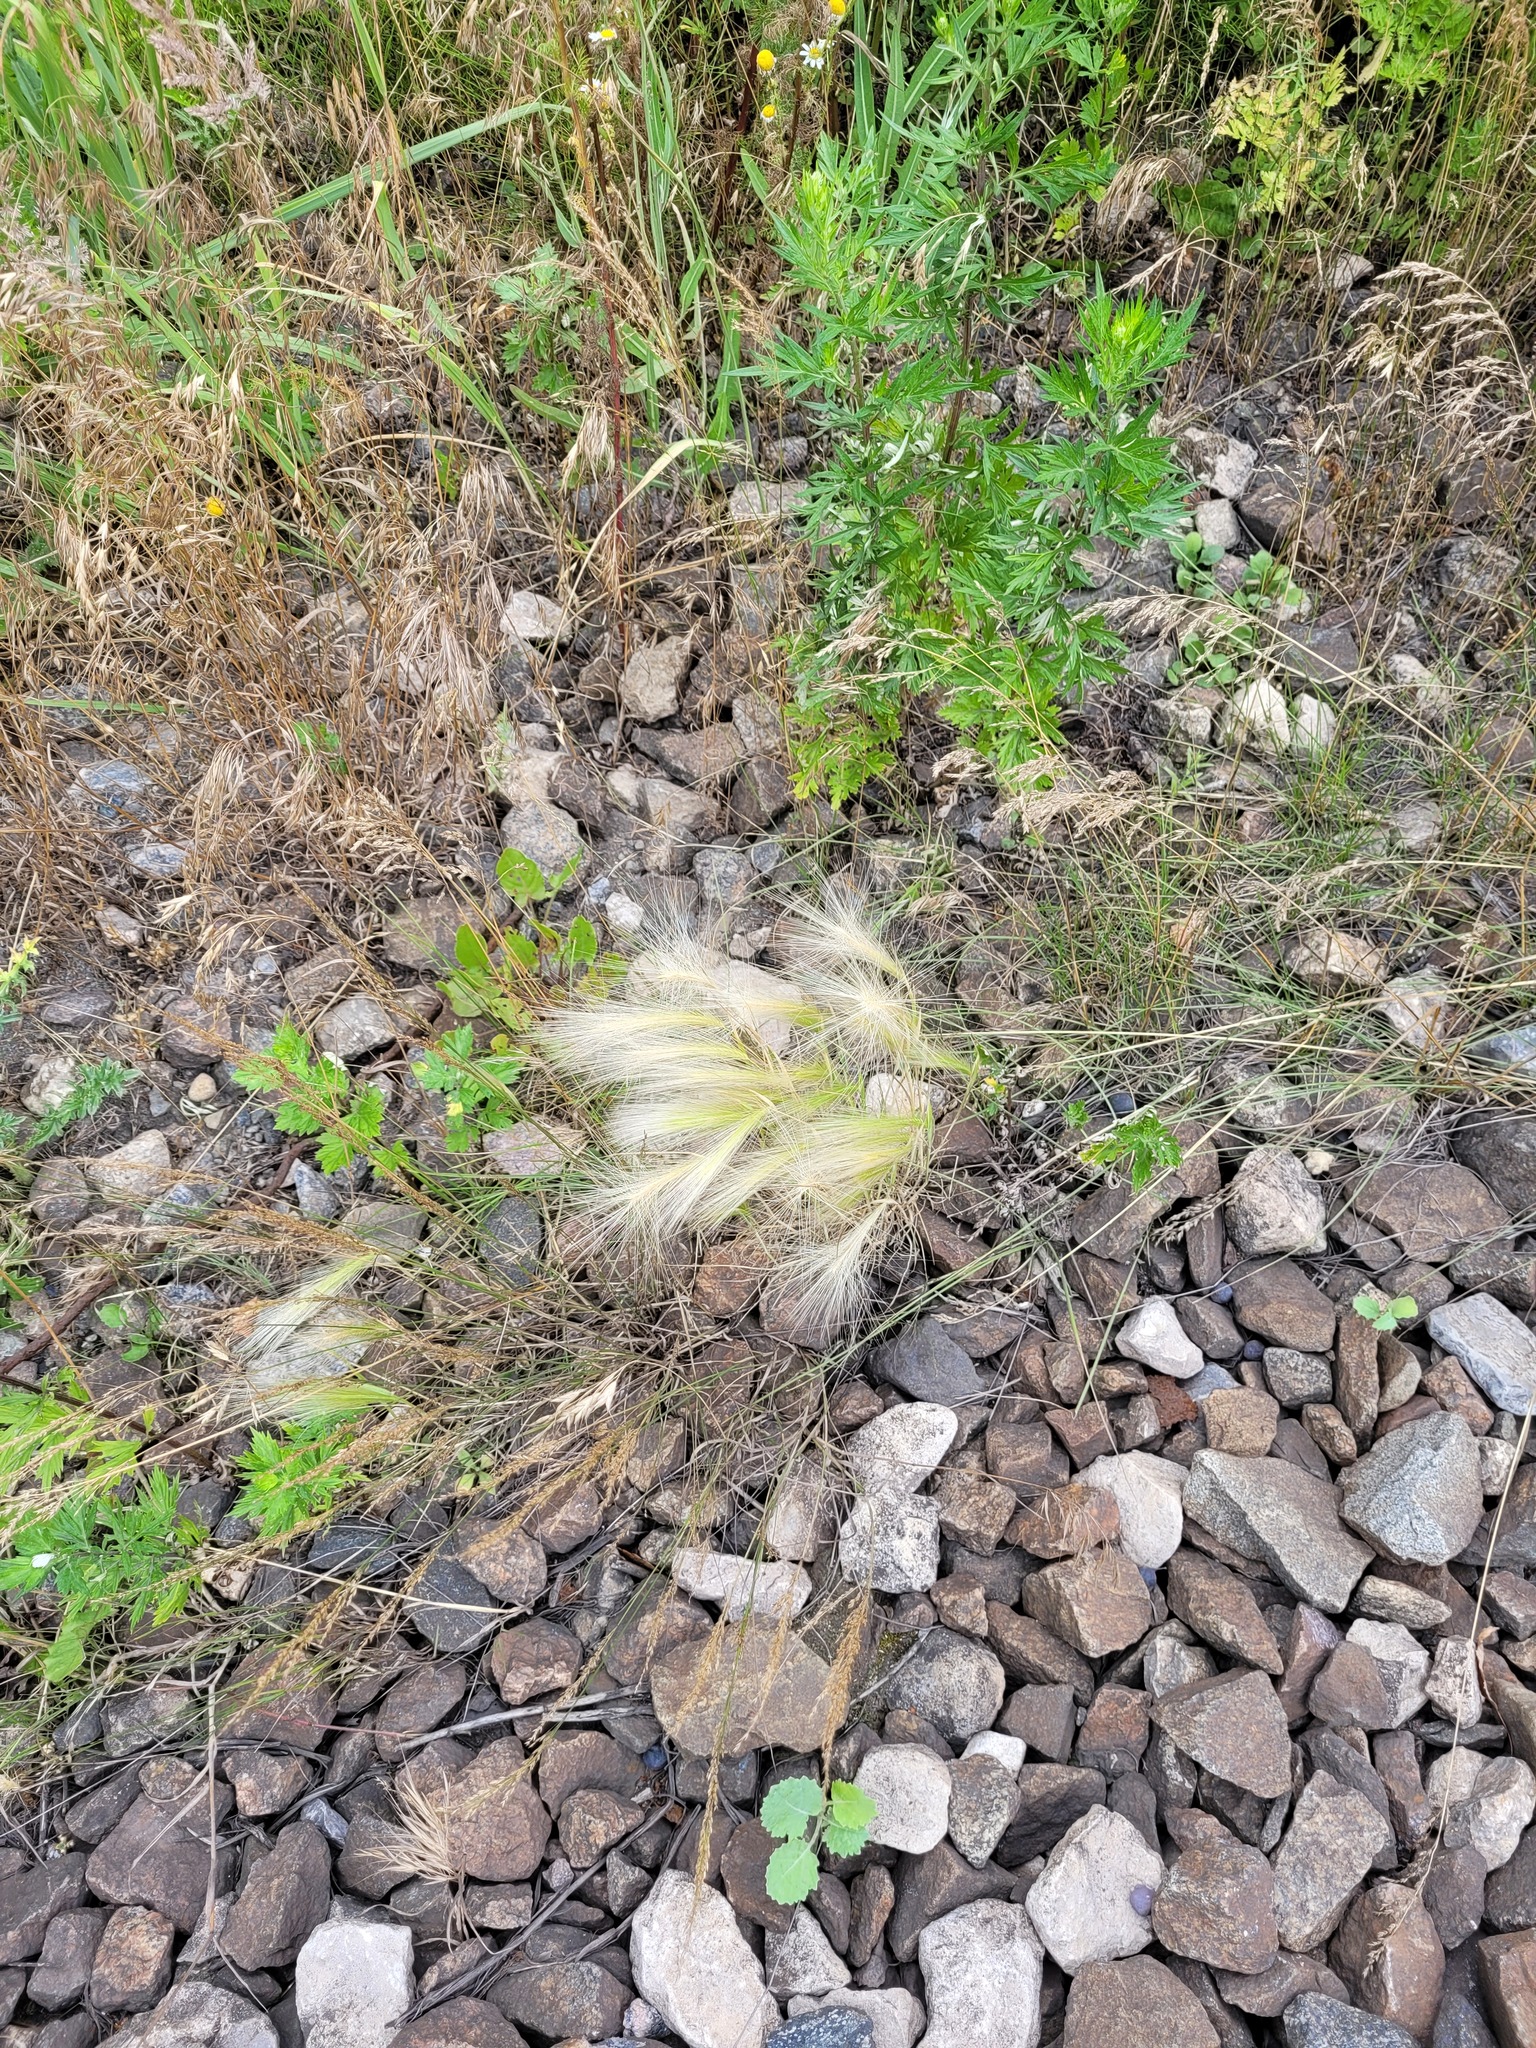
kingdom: Plantae
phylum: Tracheophyta
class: Liliopsida
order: Poales
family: Poaceae
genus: Hordeum
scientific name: Hordeum jubatum
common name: Foxtail barley
